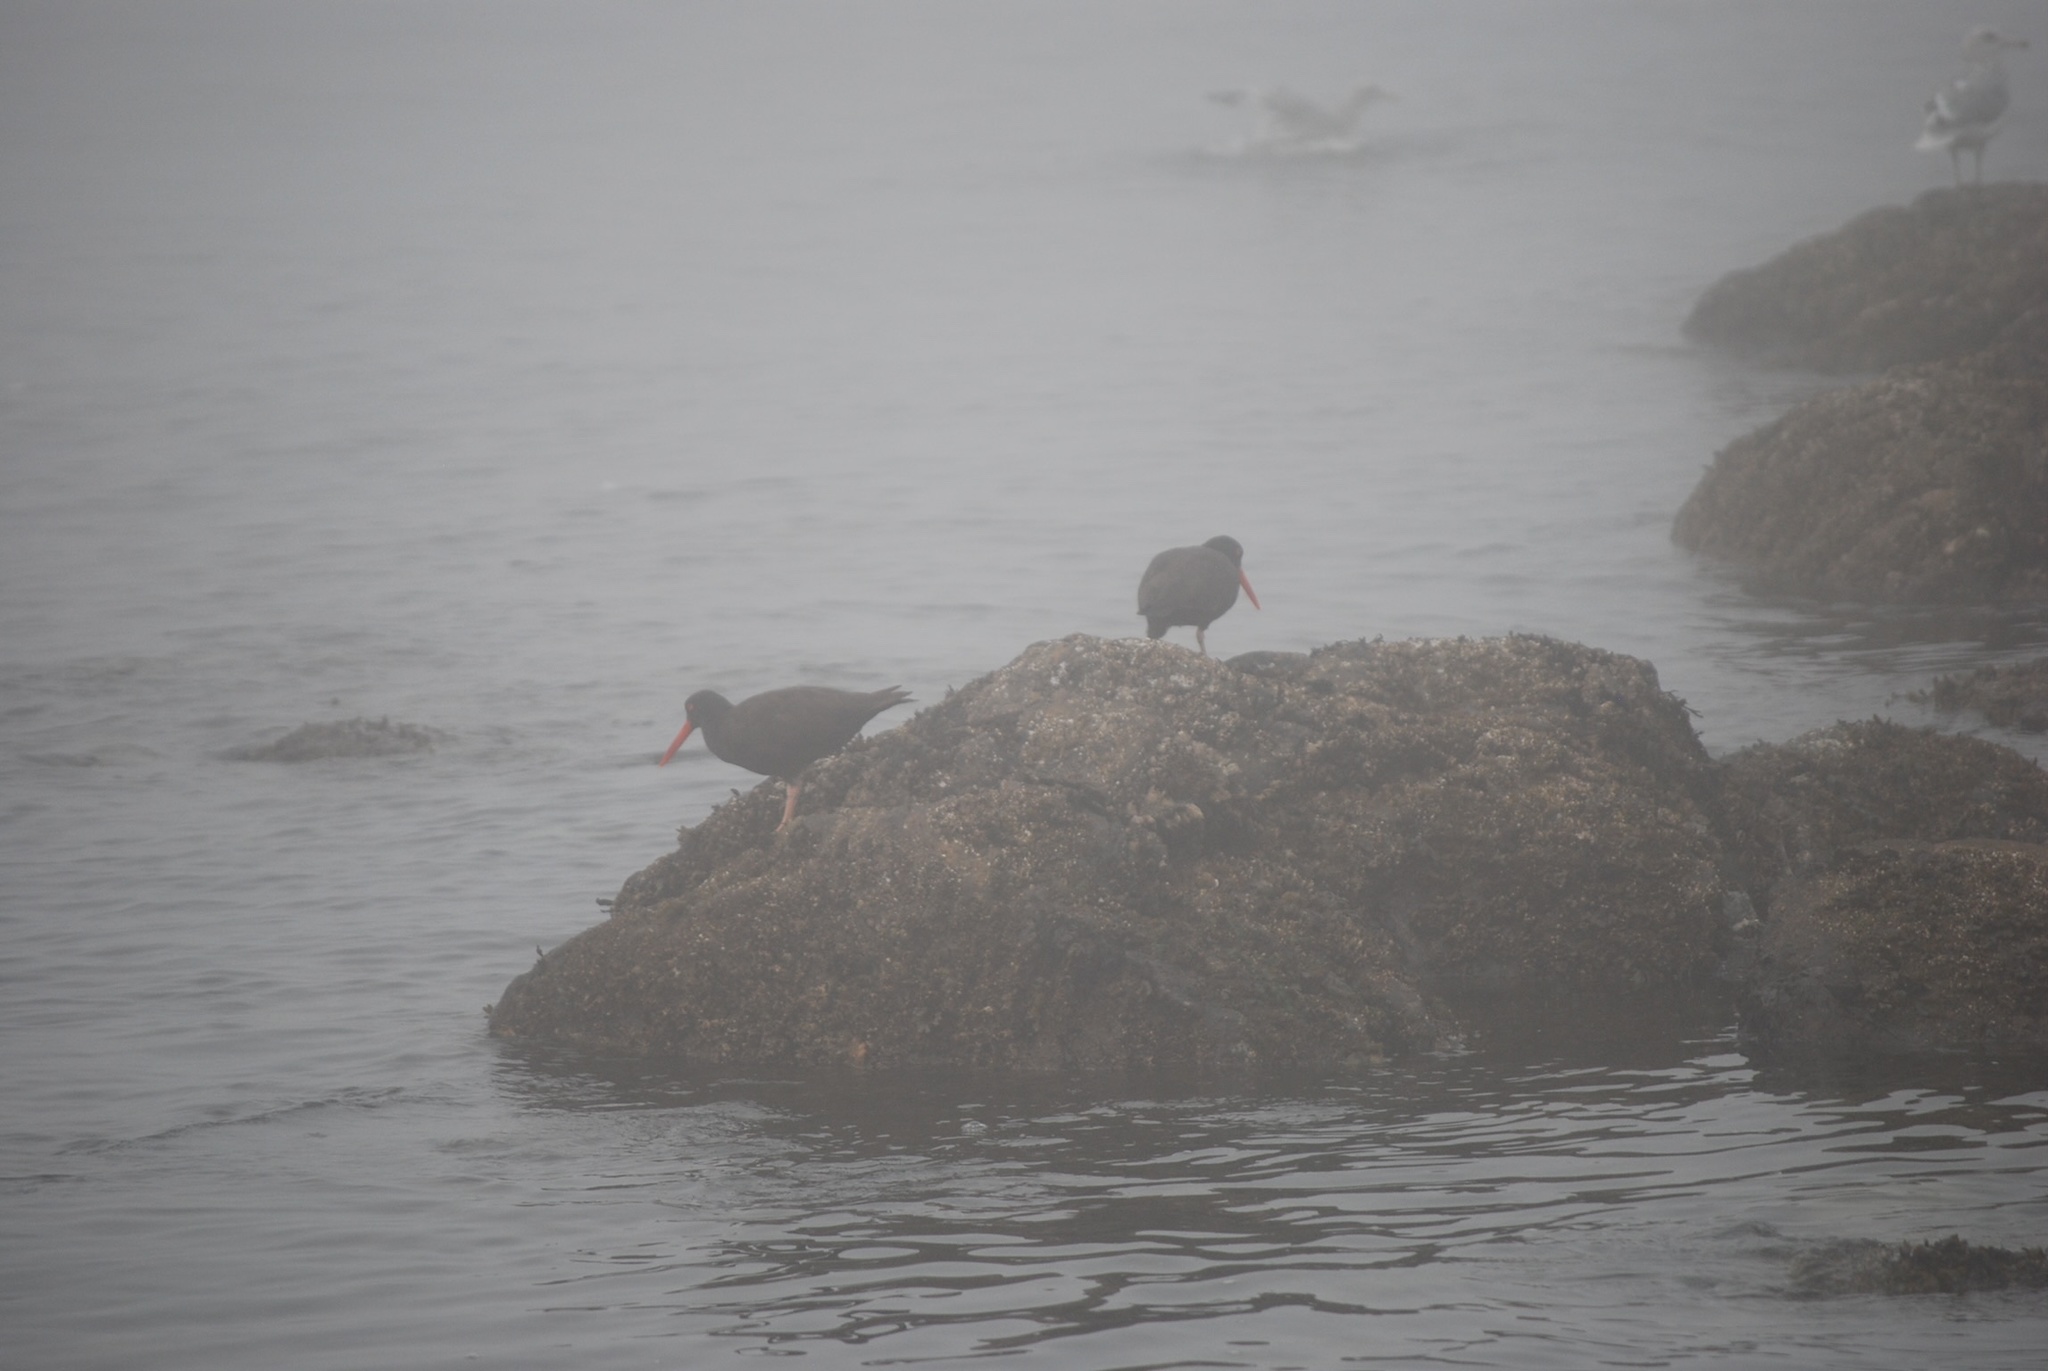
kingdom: Animalia
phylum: Chordata
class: Aves
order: Charadriiformes
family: Haematopodidae
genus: Haematopus
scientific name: Haematopus bachmani
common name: Black oystercatcher
